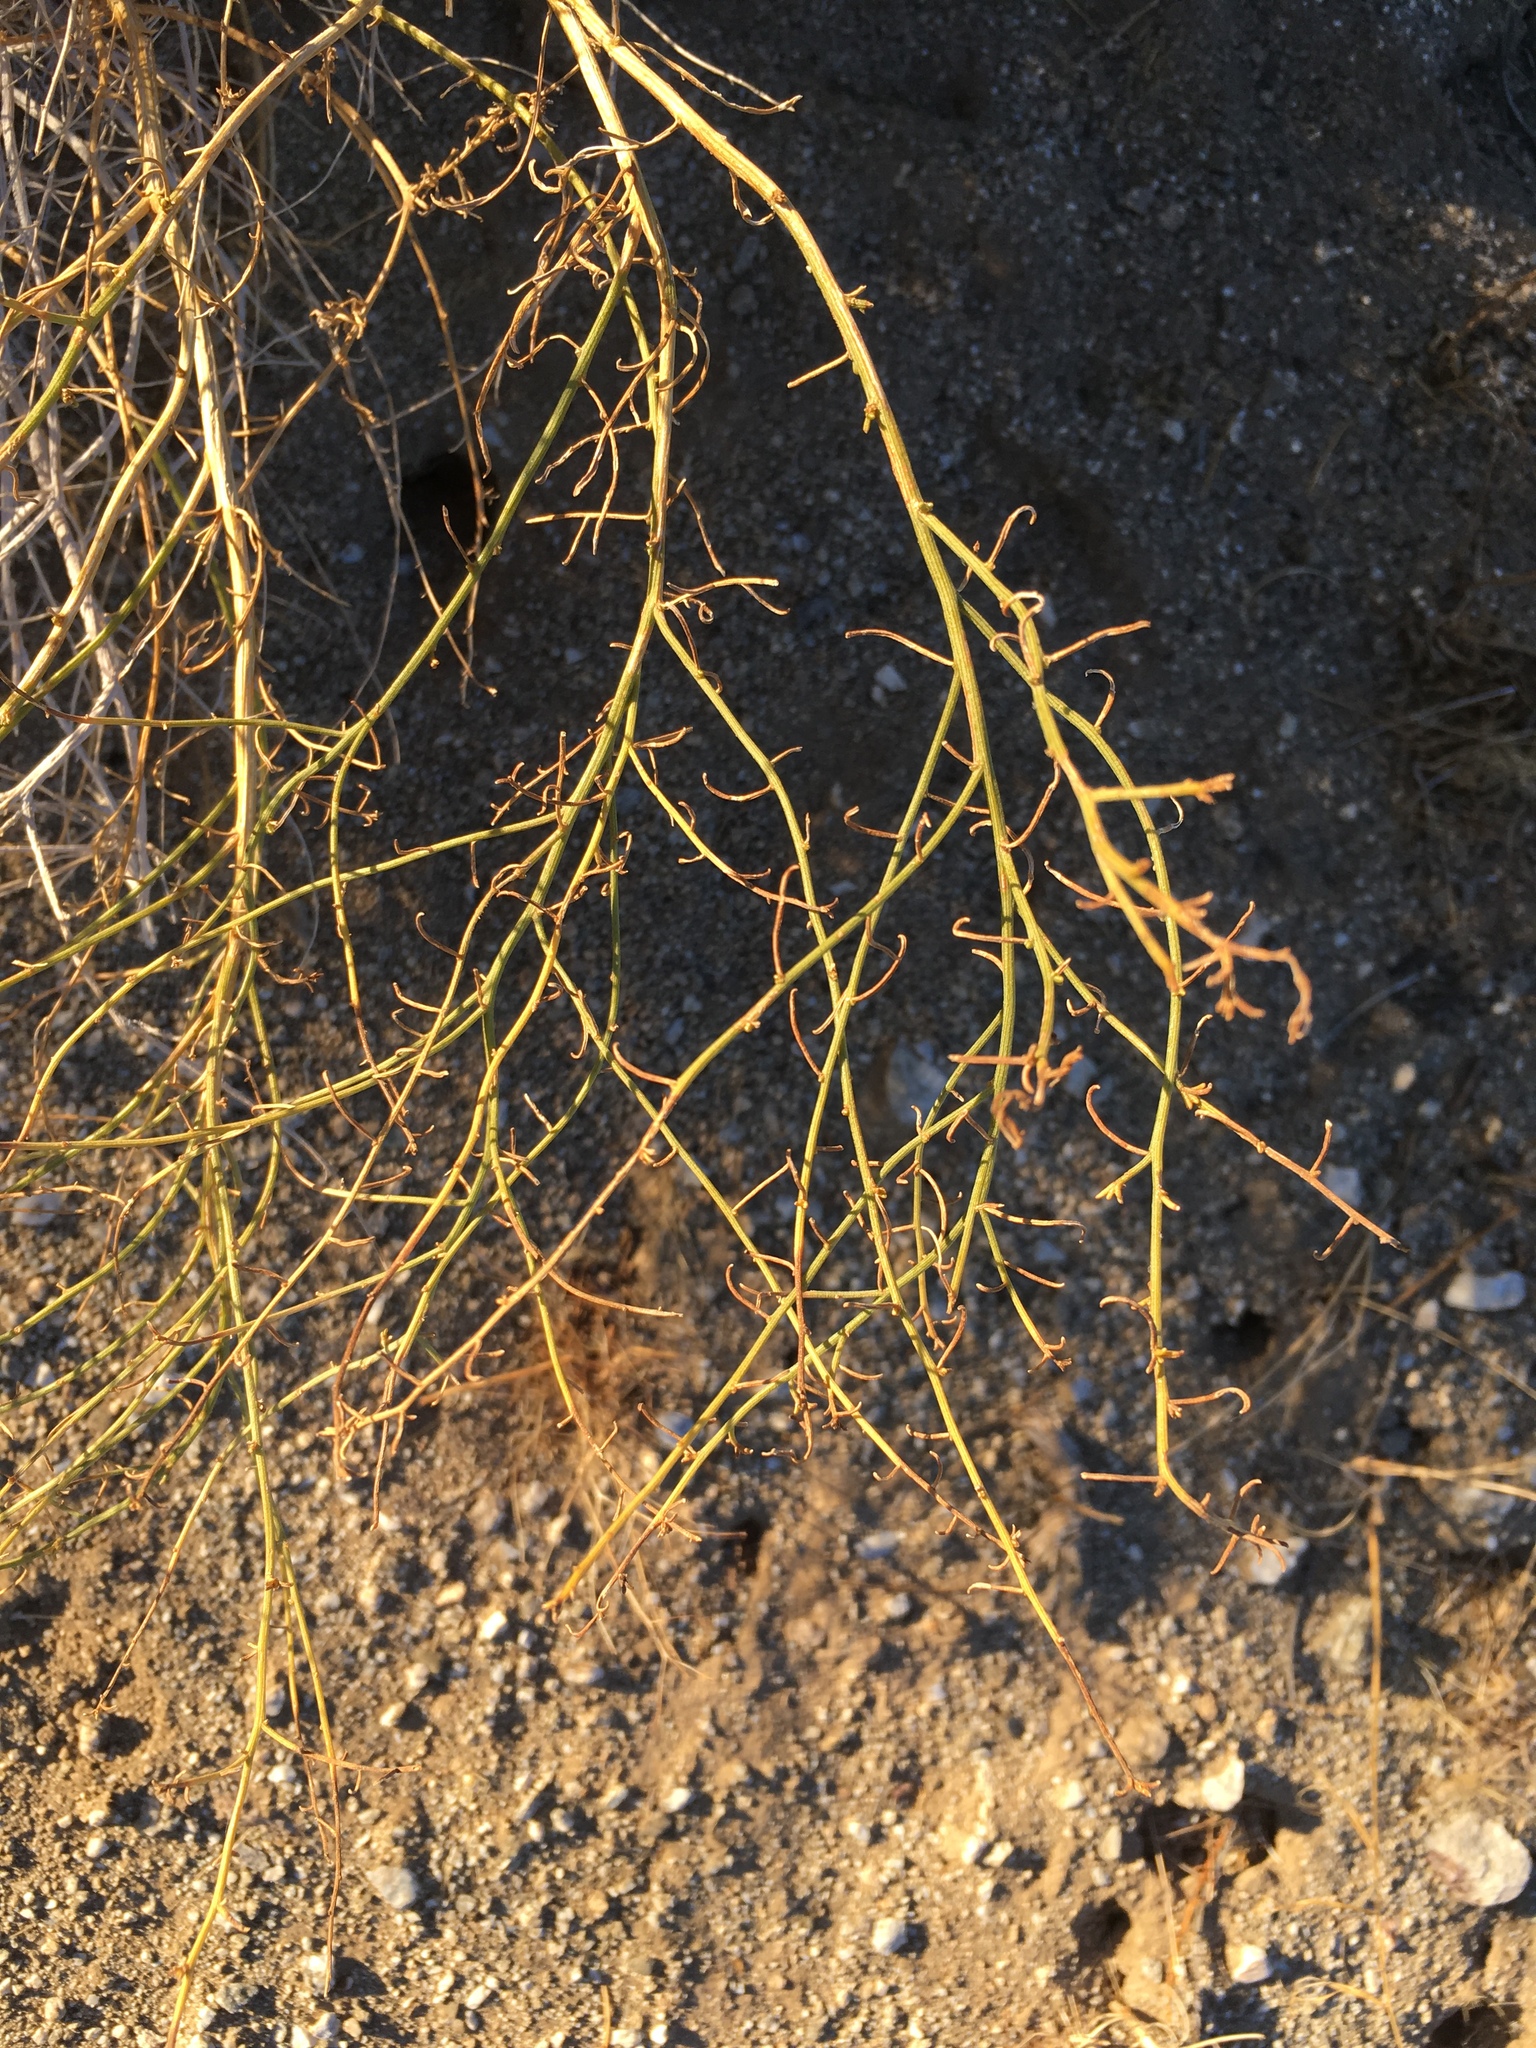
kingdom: Plantae
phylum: Tracheophyta
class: Magnoliopsida
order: Asterales
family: Asteraceae
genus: Ambrosia
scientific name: Ambrosia salsola
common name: Burrobrush
